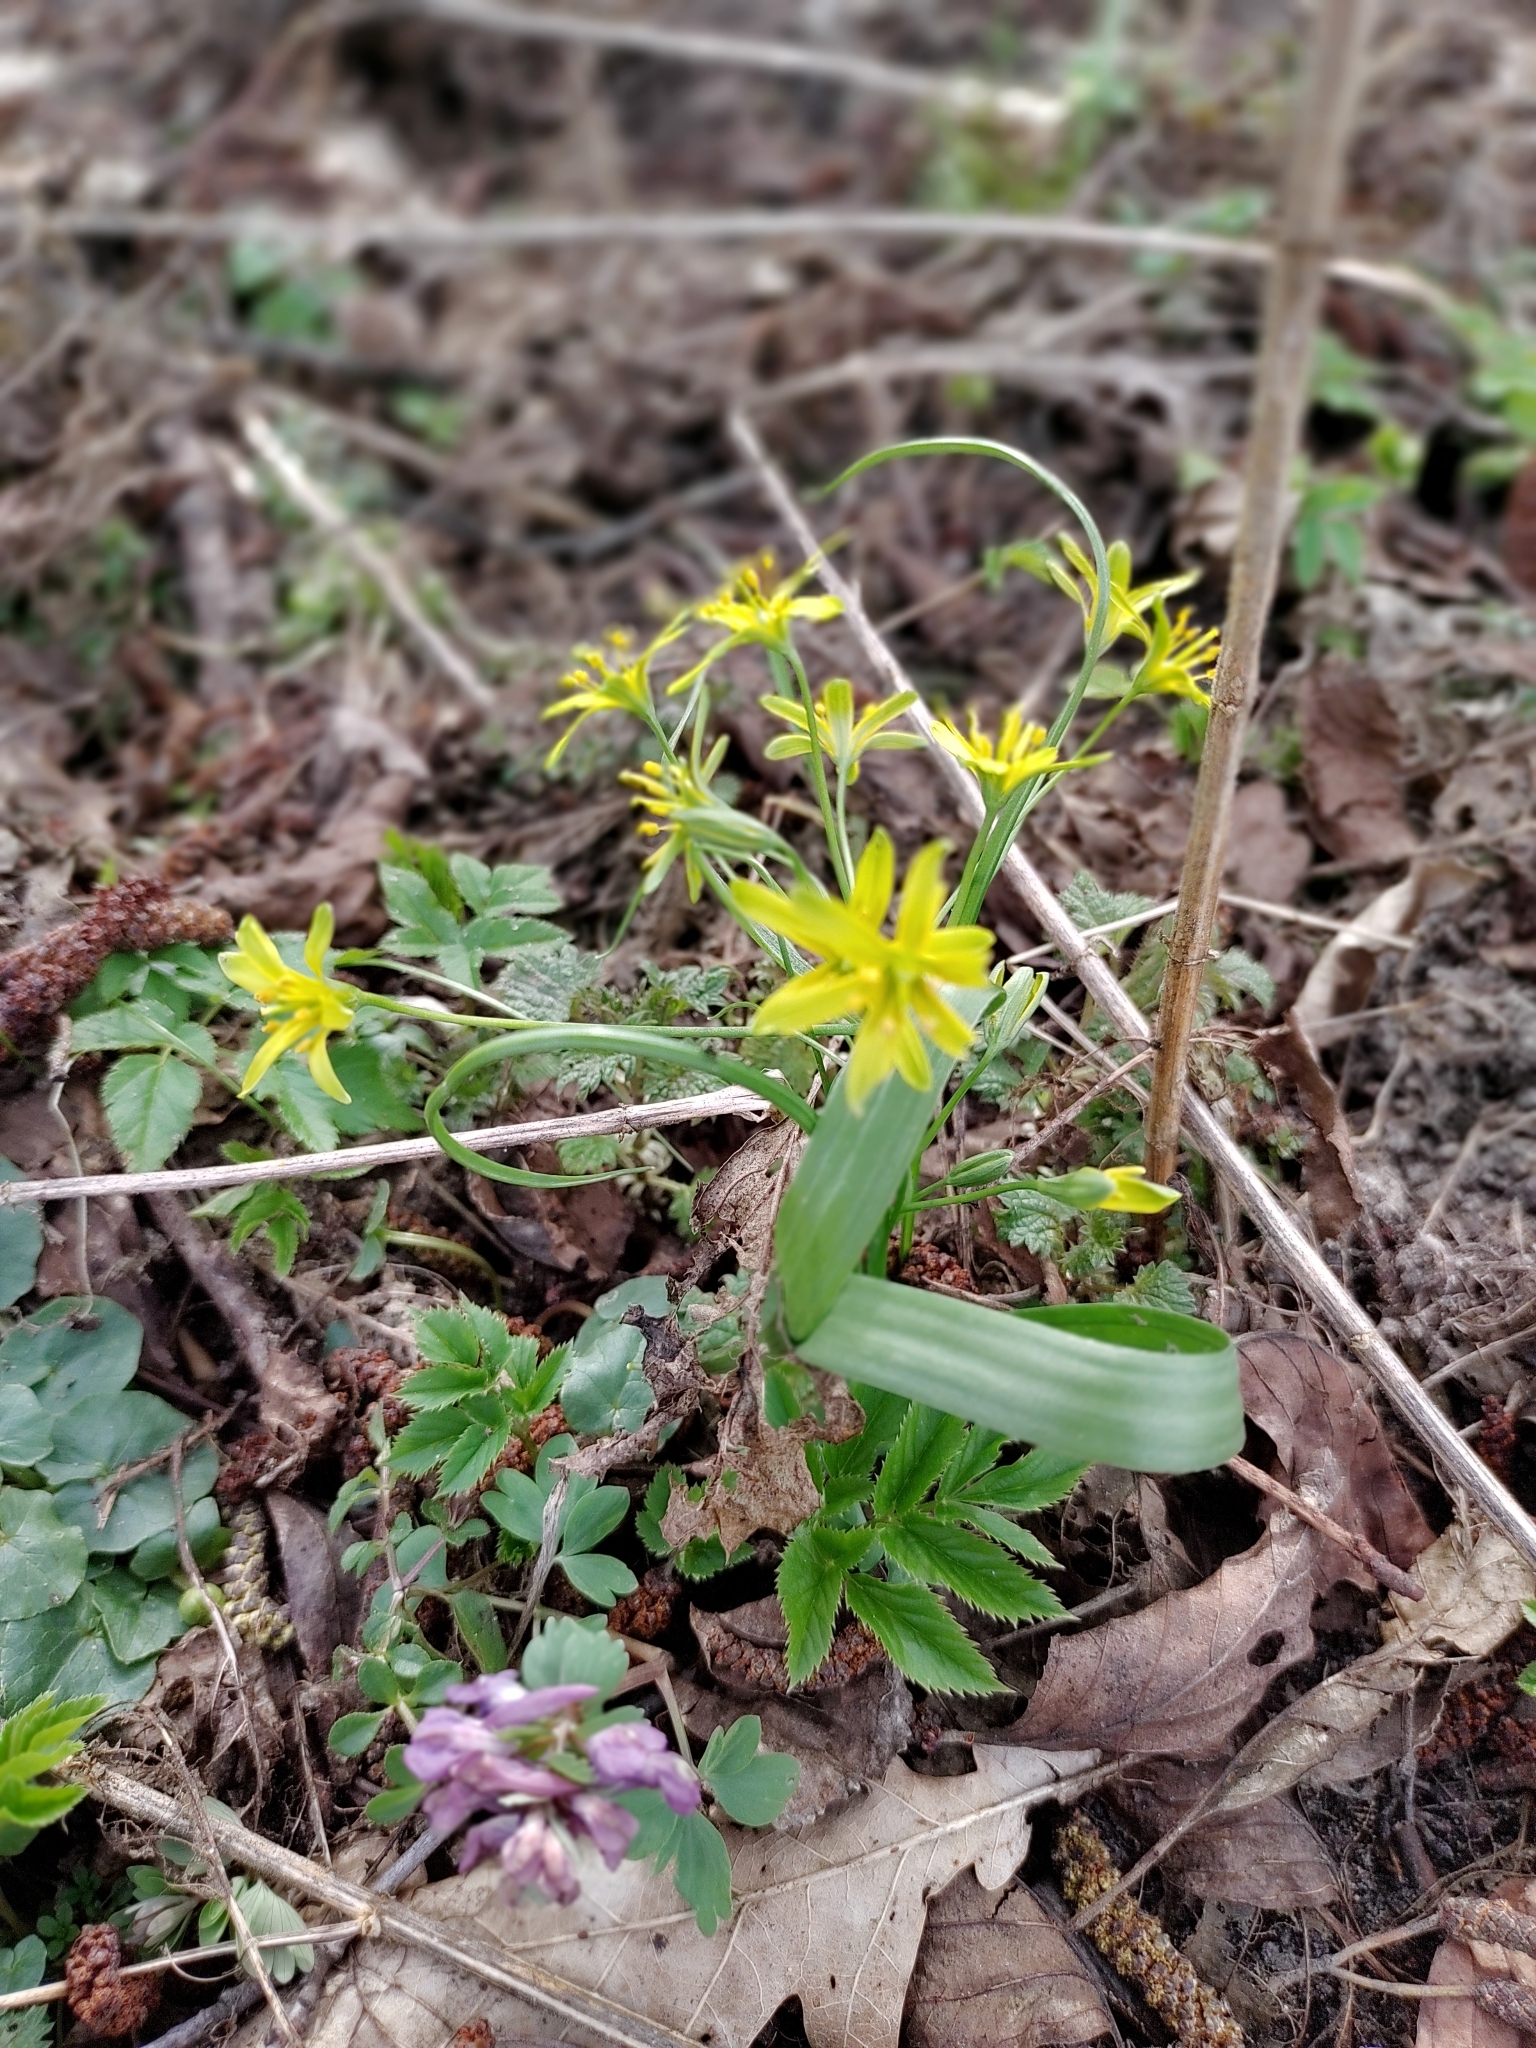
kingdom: Plantae
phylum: Tracheophyta
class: Liliopsida
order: Liliales
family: Liliaceae
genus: Gagea
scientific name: Gagea lutea
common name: Yellow star-of-bethlehem
